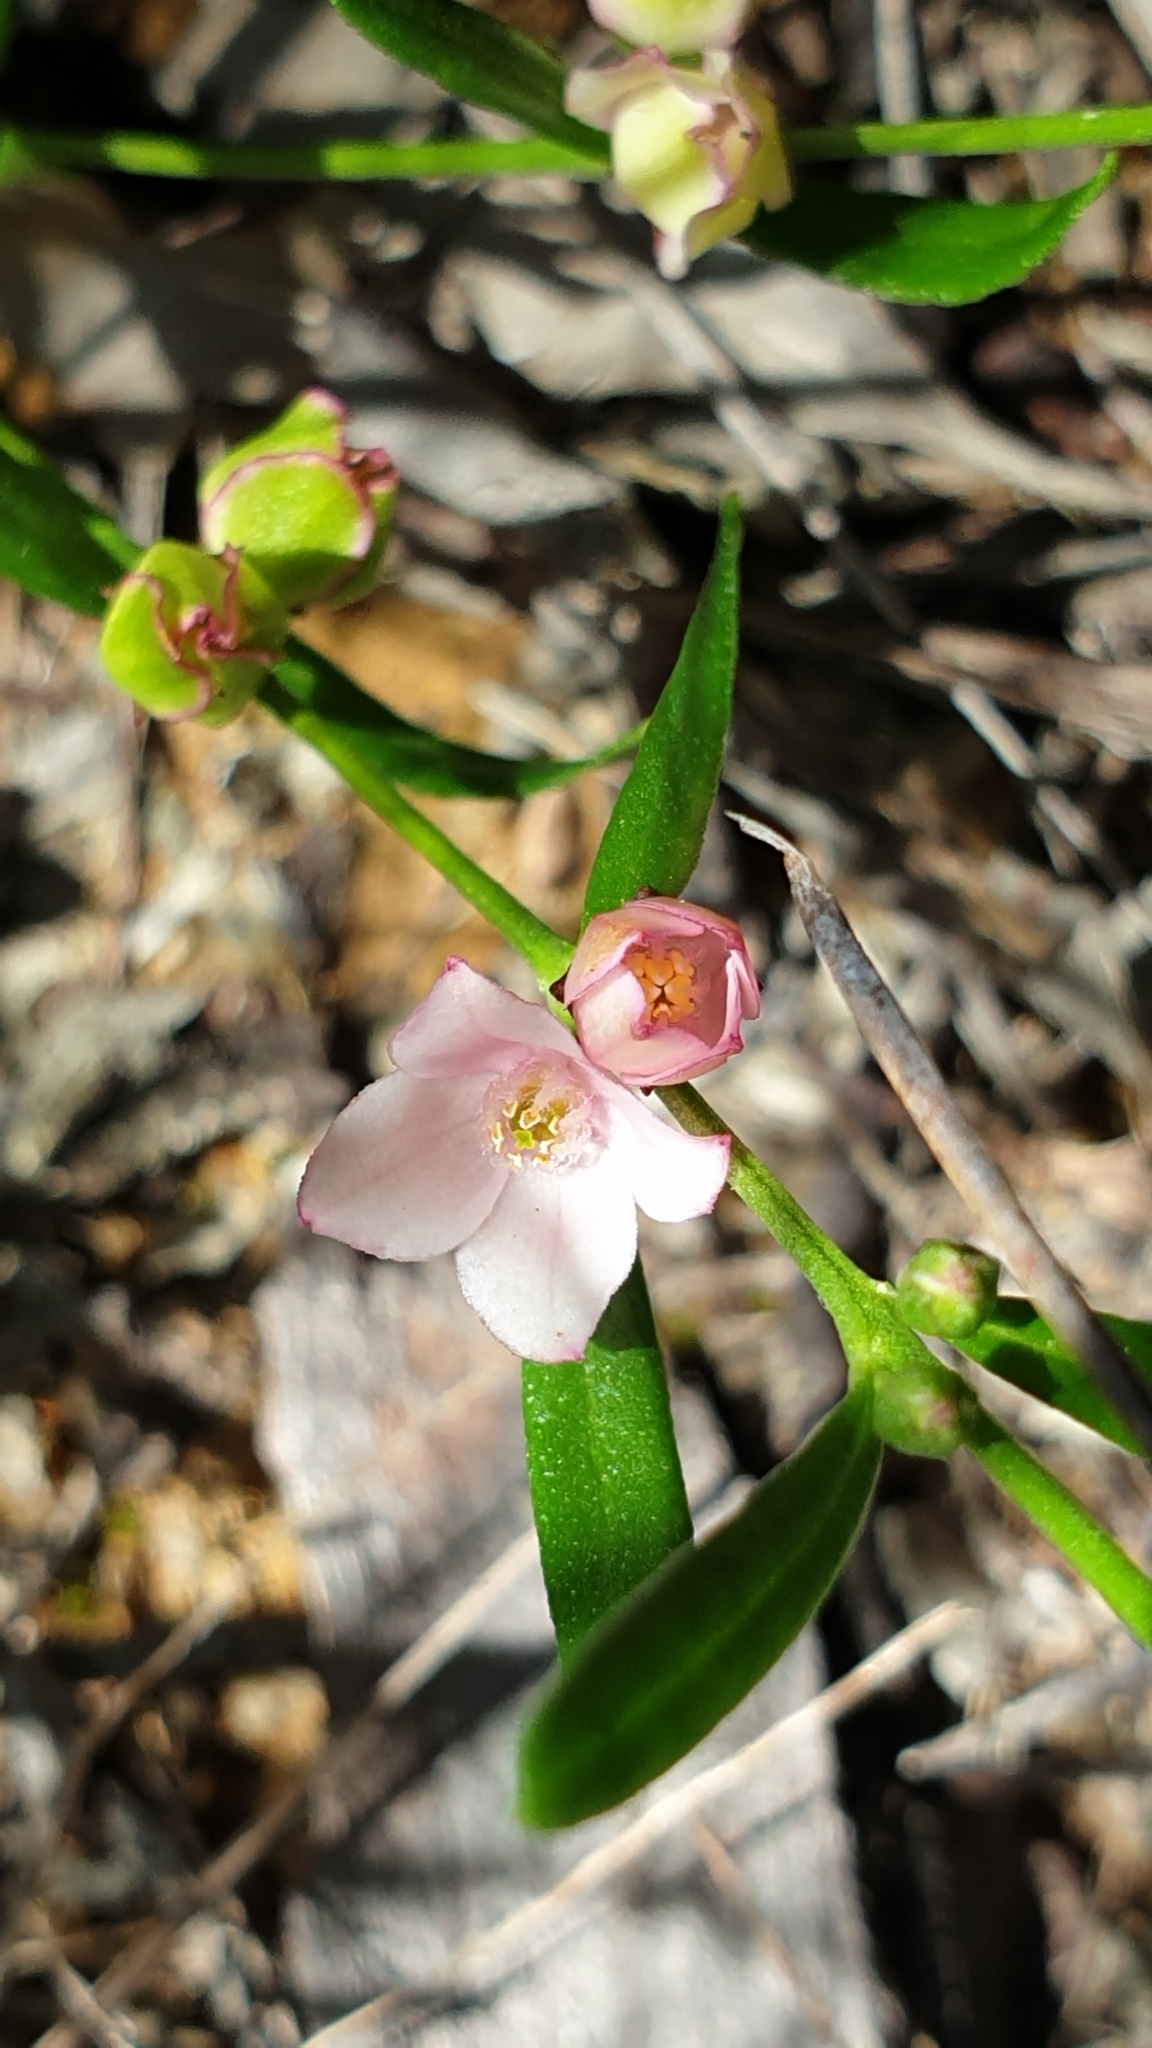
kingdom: Plantae
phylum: Tracheophyta
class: Magnoliopsida
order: Sapindales
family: Rutaceae
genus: Cyanothamnus
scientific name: Cyanothamnus polygalifolius
